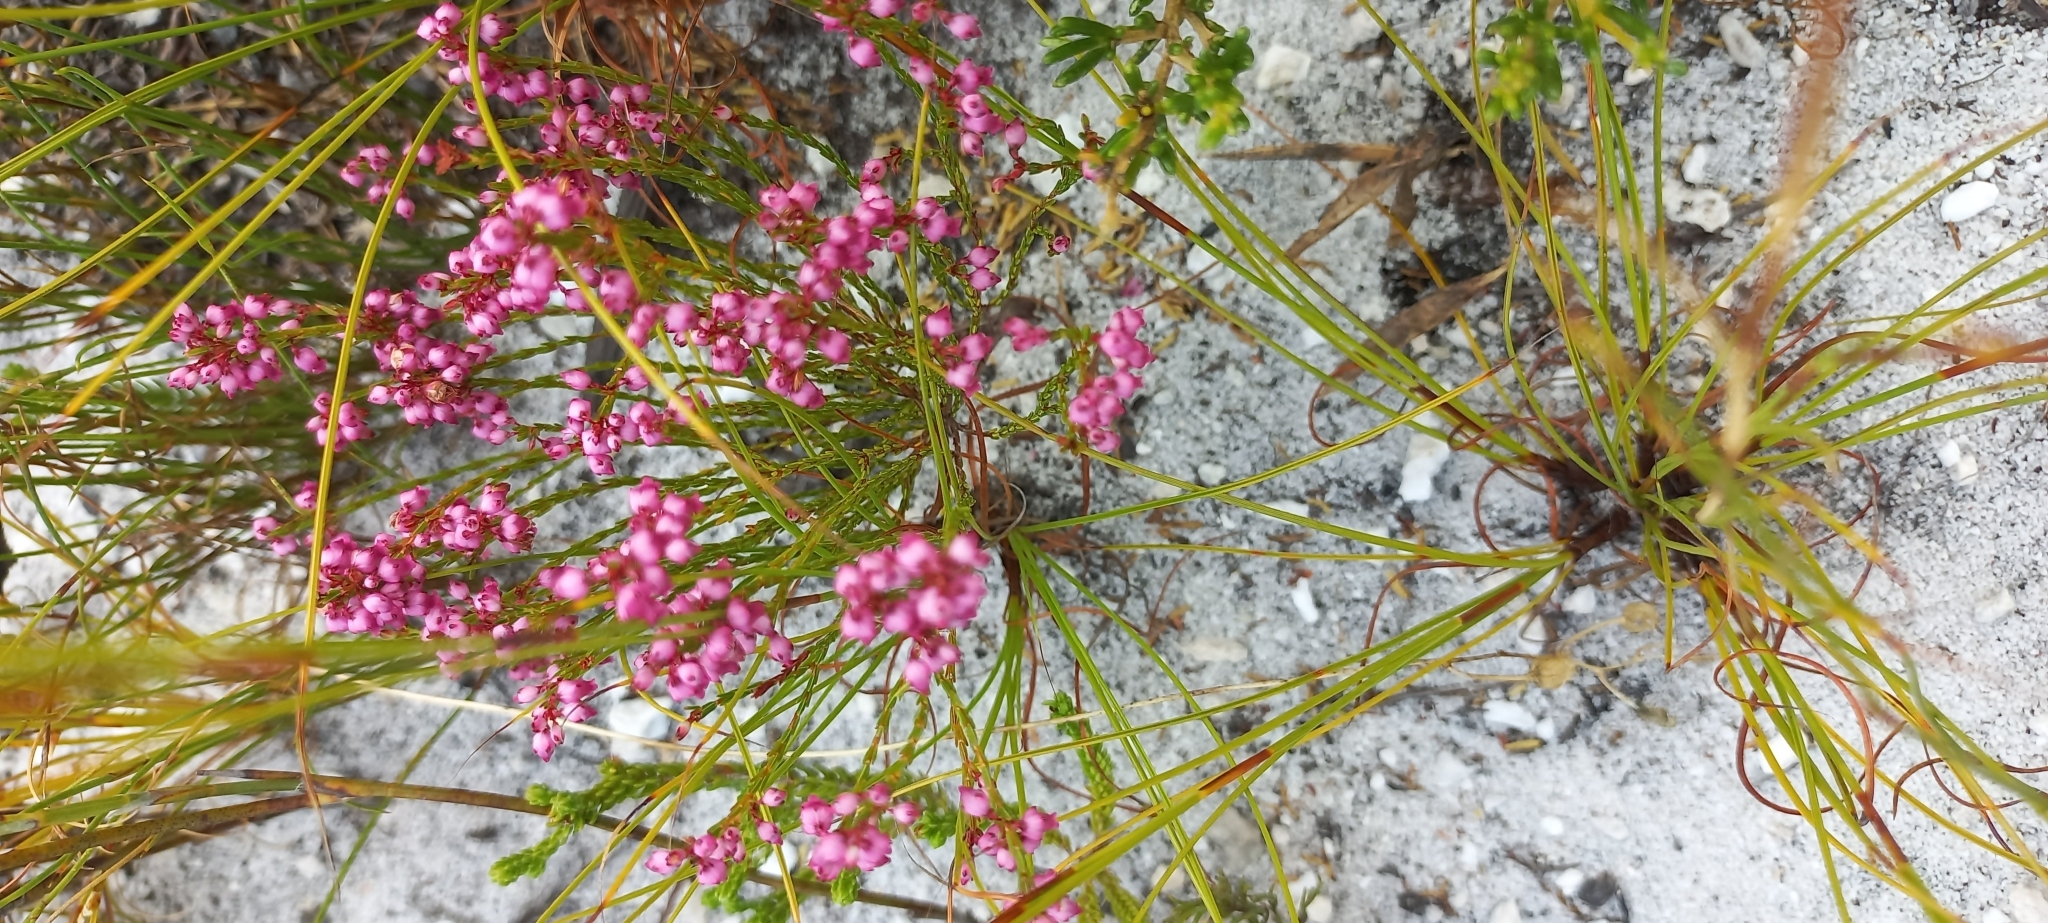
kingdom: Plantae
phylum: Tracheophyta
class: Magnoliopsida
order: Ericales
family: Ericaceae
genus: Erica
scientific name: Erica rhopalantha
